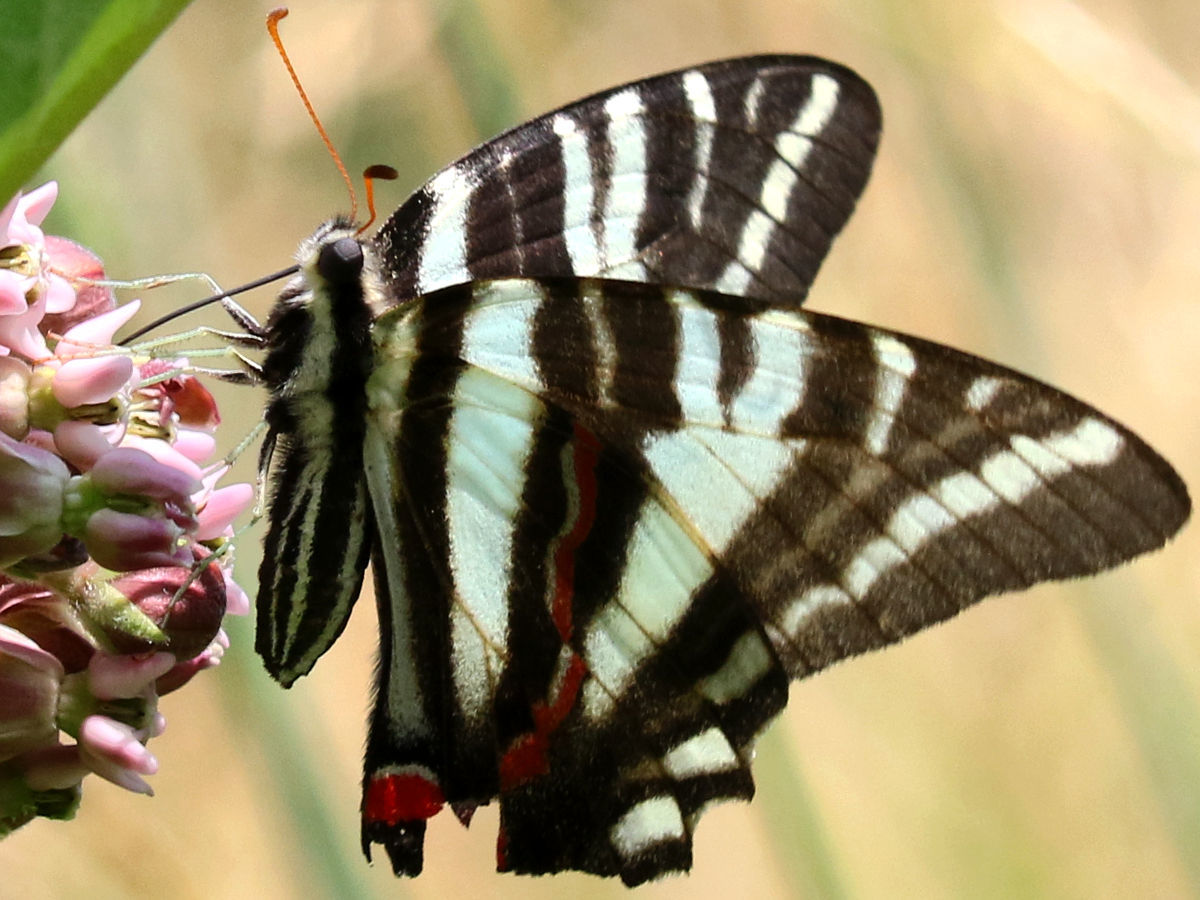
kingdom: Animalia
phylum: Arthropoda
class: Insecta
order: Lepidoptera
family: Papilionidae
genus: Protographium
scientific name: Protographium marcellus
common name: Zebra swallowtail
